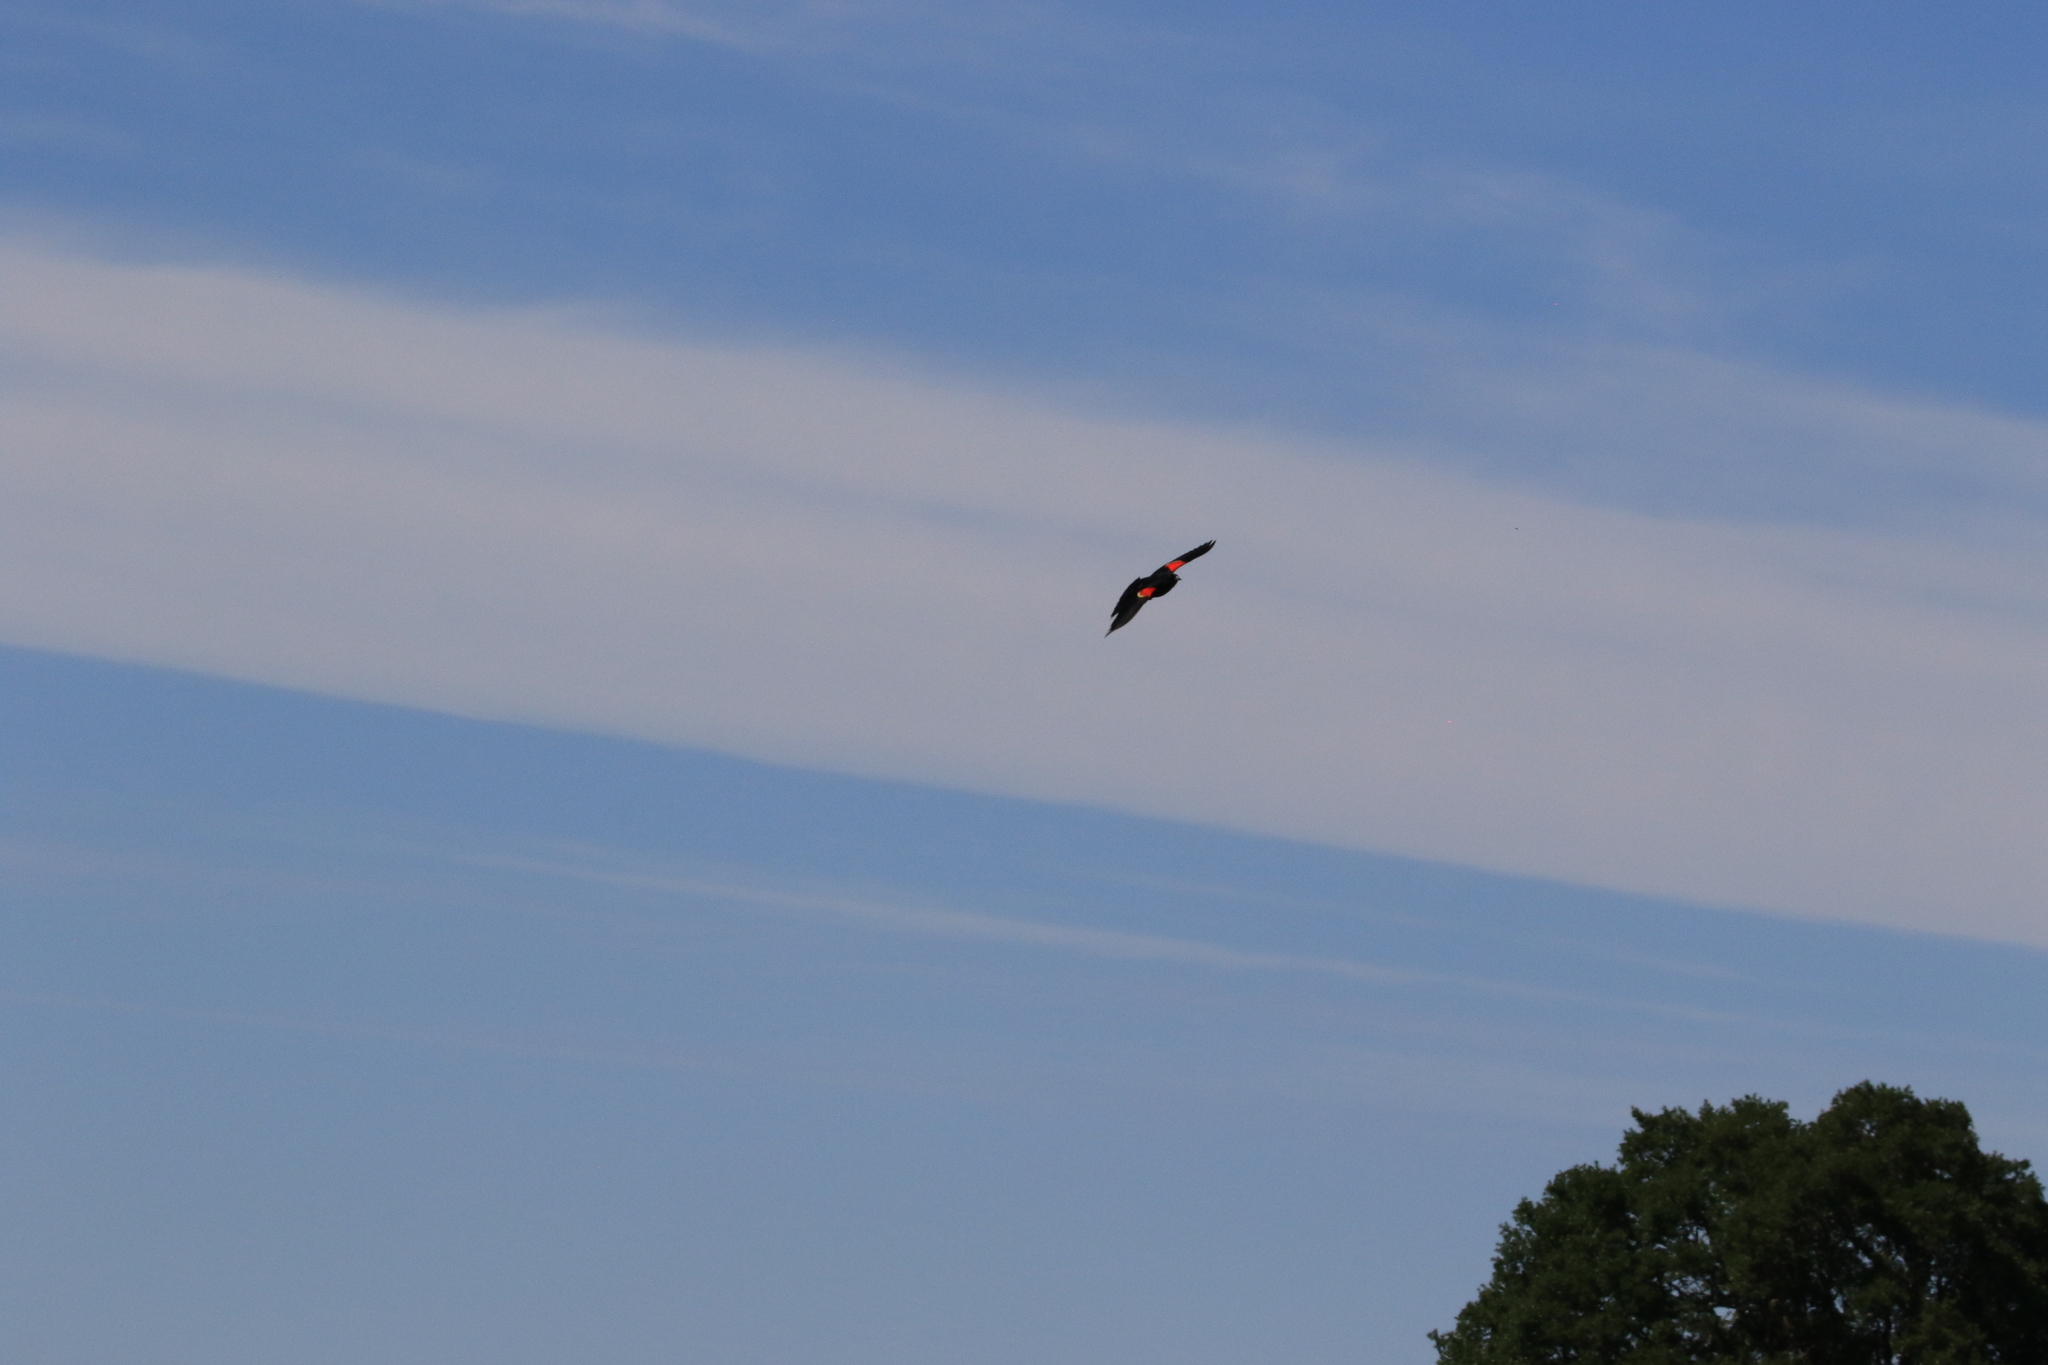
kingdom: Animalia
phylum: Chordata
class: Aves
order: Passeriformes
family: Icteridae
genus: Agelaius
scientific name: Agelaius phoeniceus
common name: Red-winged blackbird
